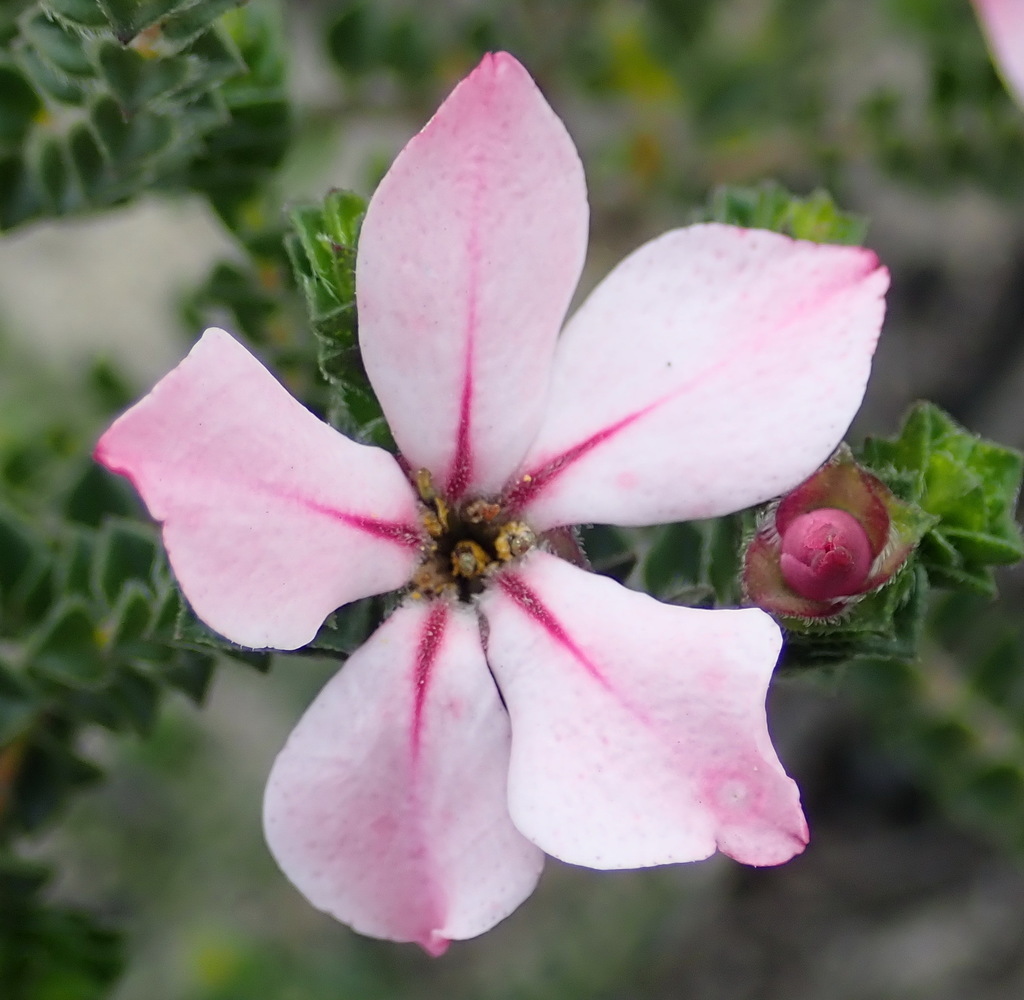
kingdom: Plantae
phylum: Tracheophyta
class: Magnoliopsida
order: Sapindales
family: Rutaceae
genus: Acmadenia
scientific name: Acmadenia tetragona
